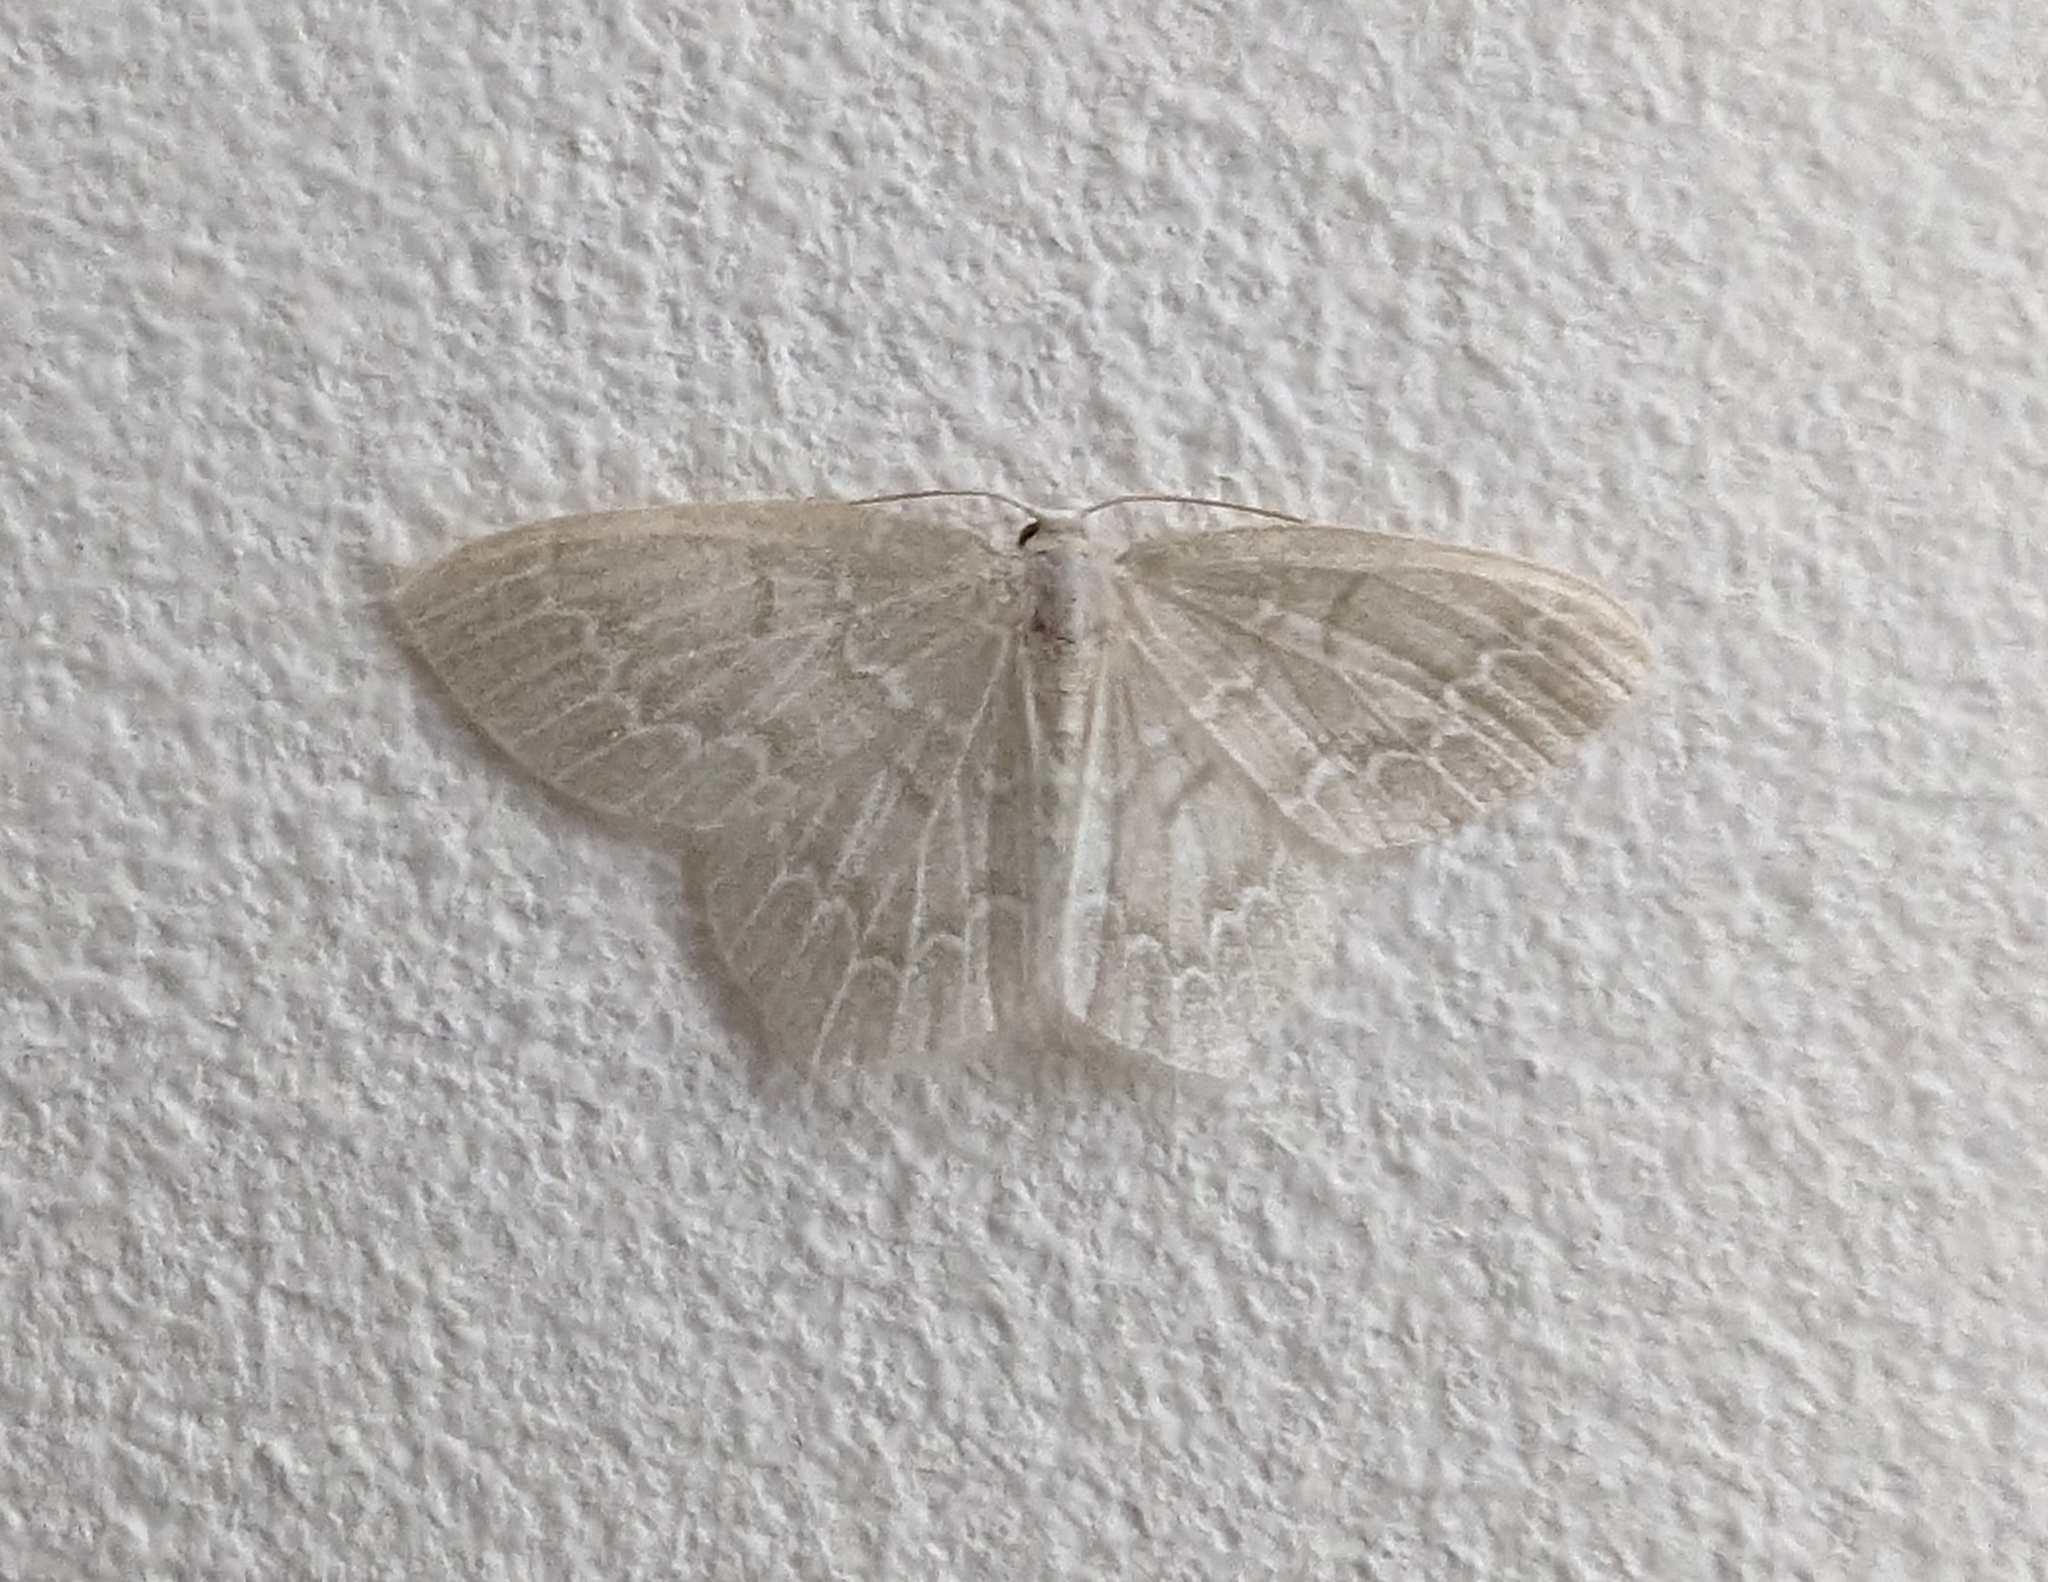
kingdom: Animalia
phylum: Arthropoda
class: Insecta
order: Lepidoptera
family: Geometridae
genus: Jodis
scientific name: Jodis putata
